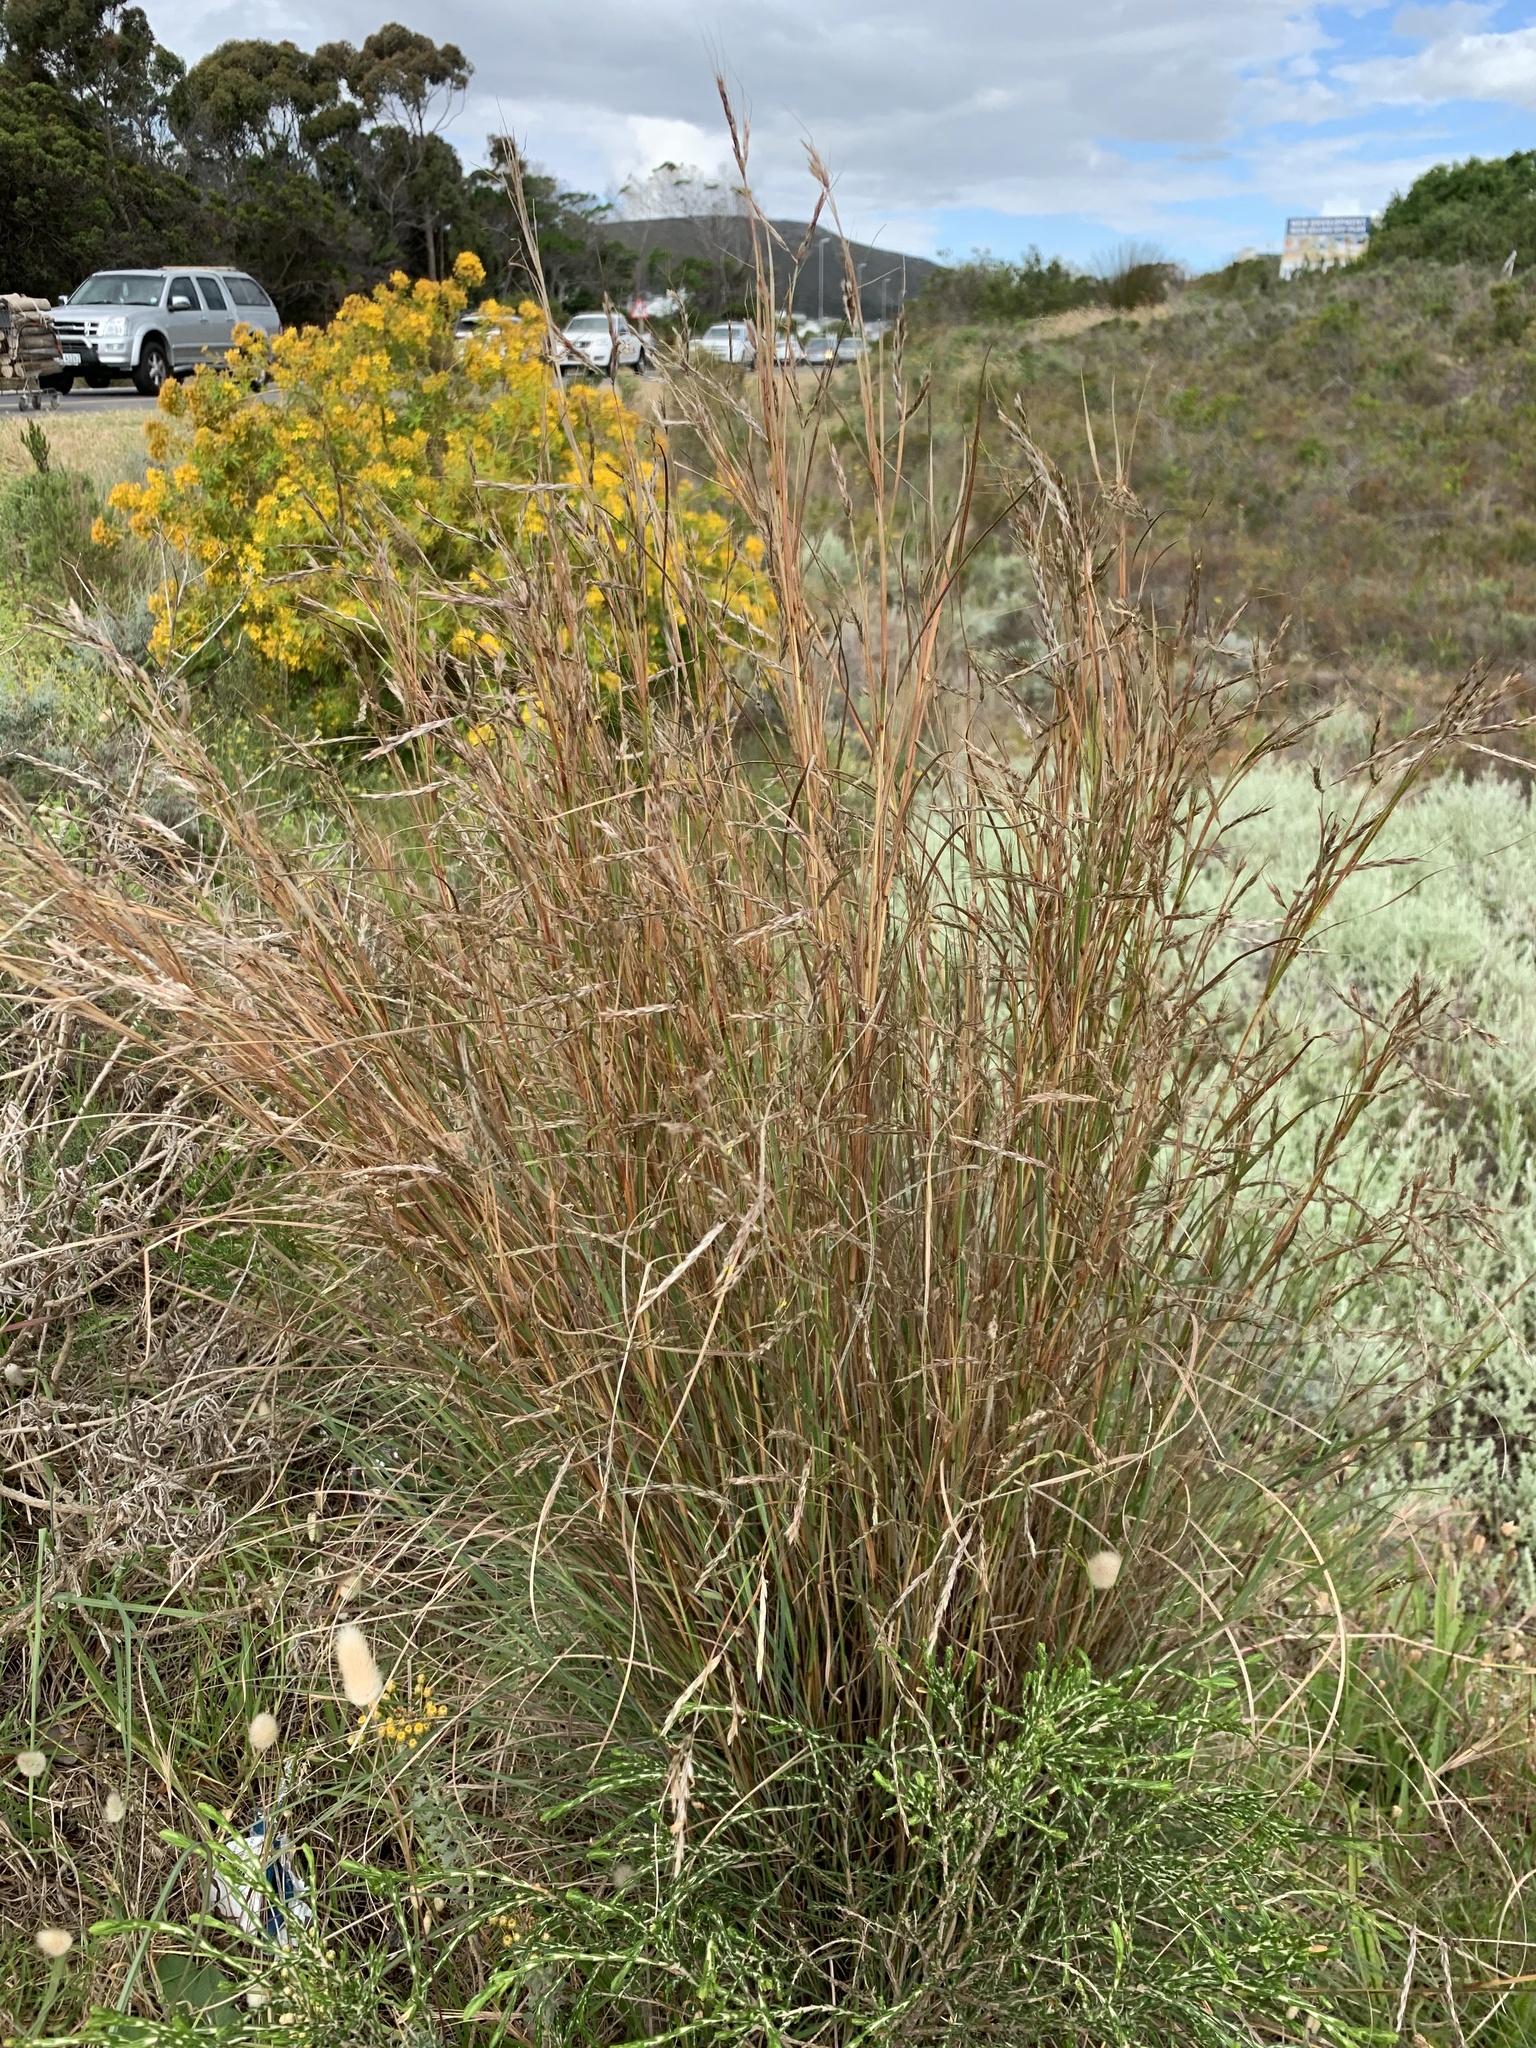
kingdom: Plantae
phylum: Tracheophyta
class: Liliopsida
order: Poales
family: Poaceae
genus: Hyparrhenia
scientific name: Hyparrhenia hirta
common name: Thatching grass
